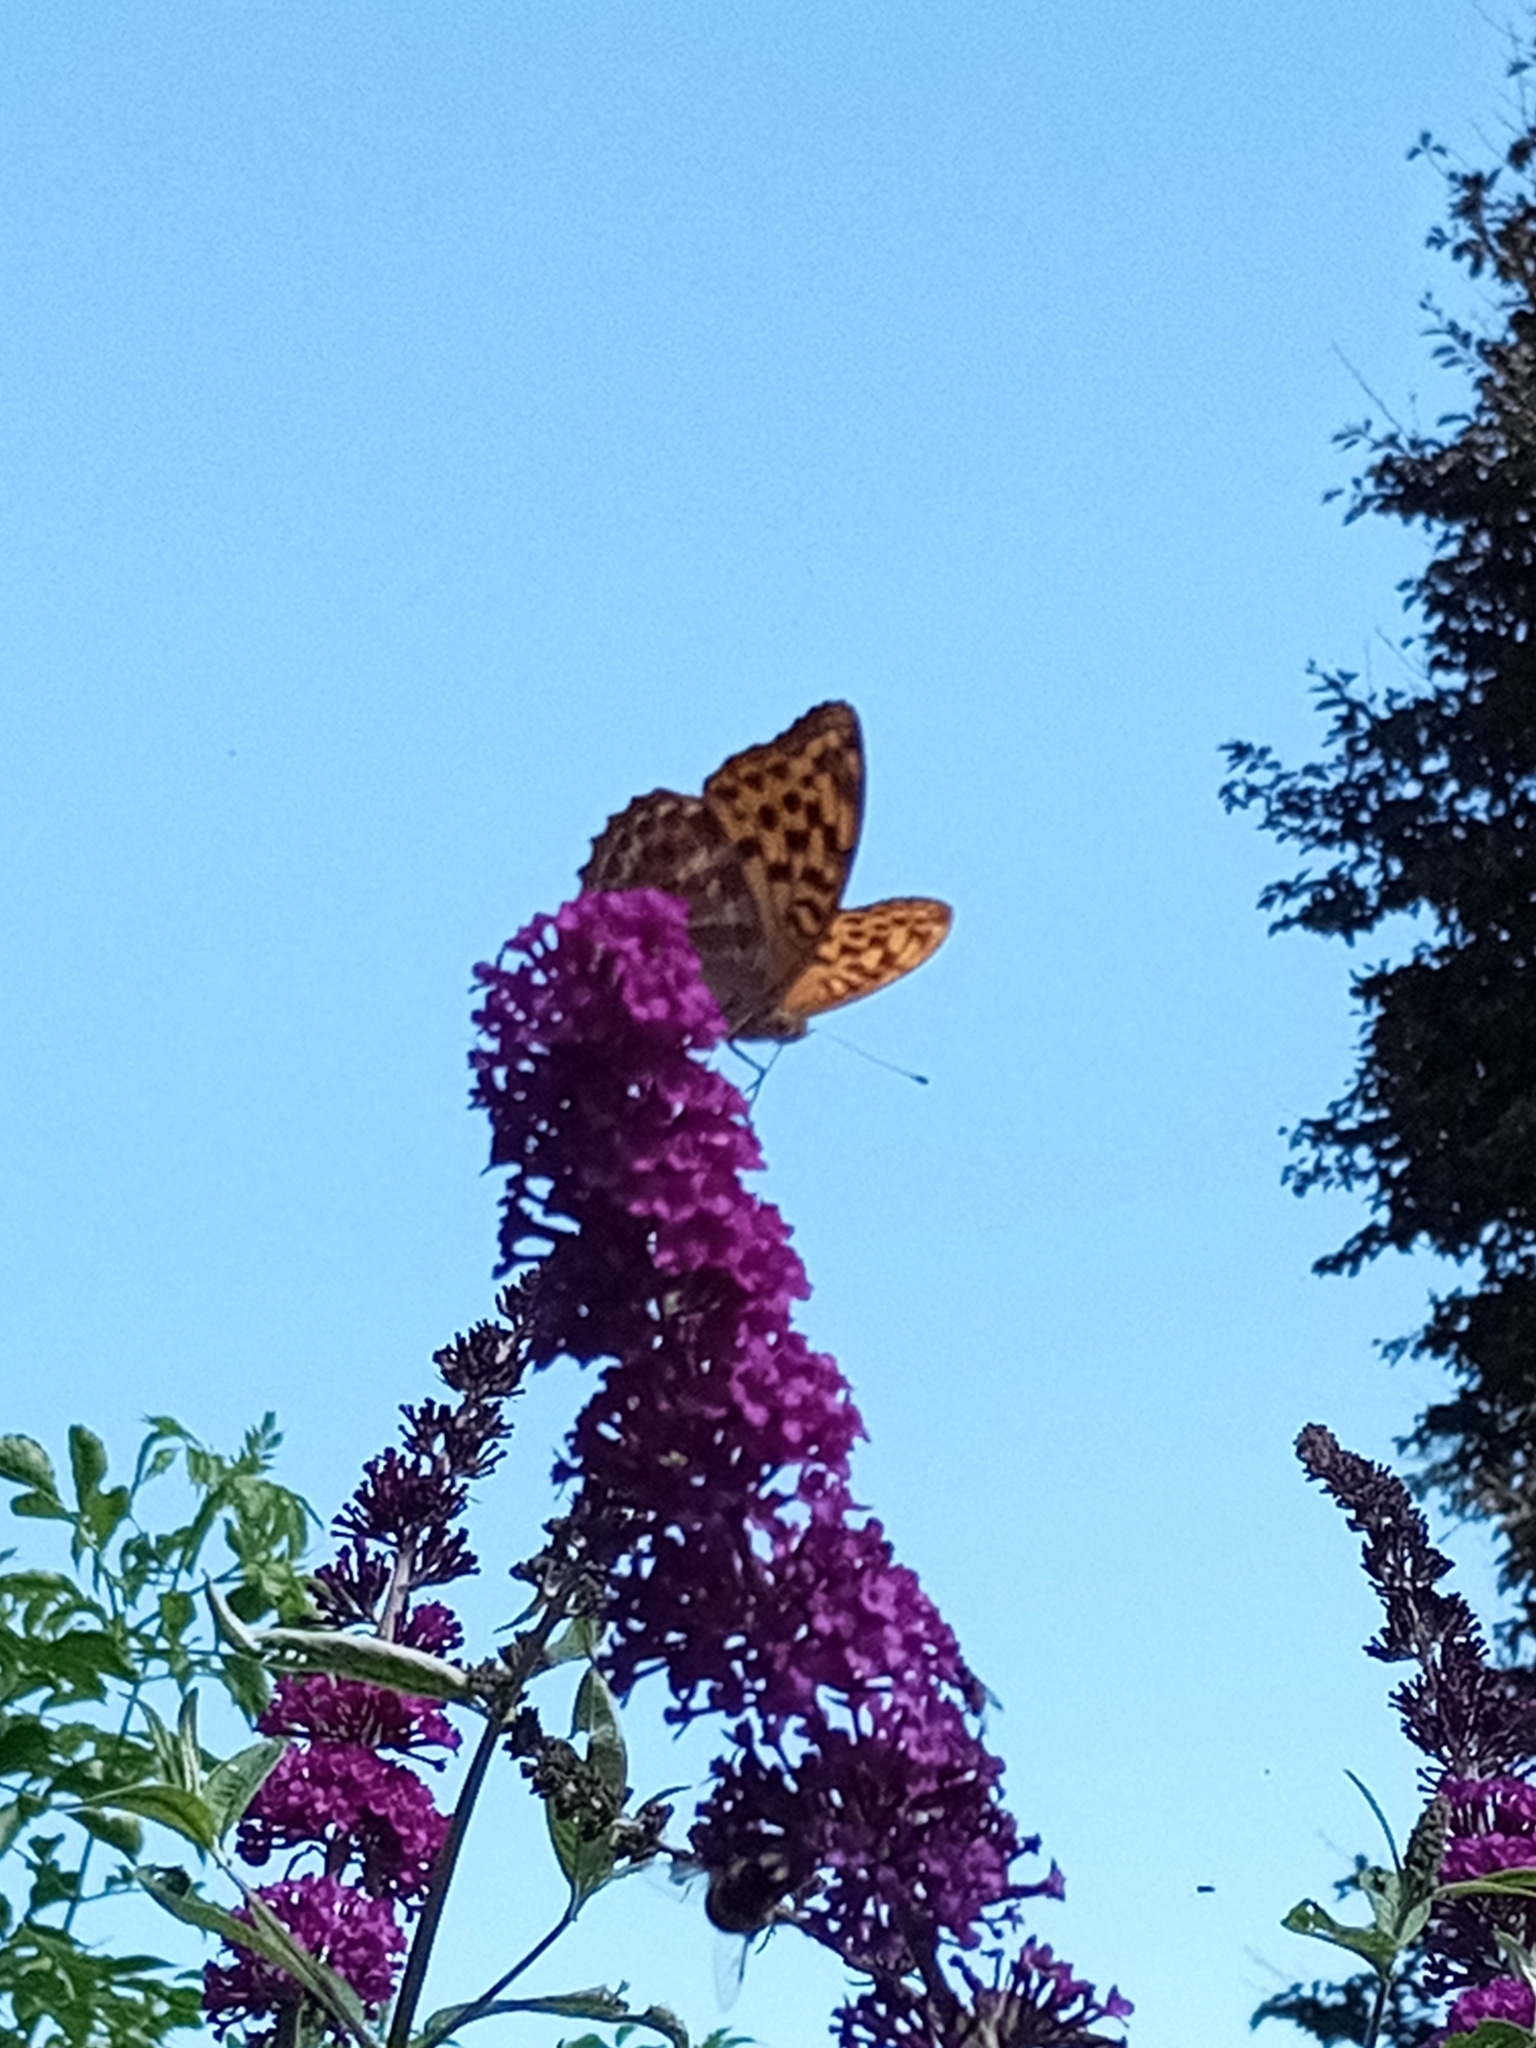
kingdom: Animalia
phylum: Arthropoda
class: Insecta
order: Lepidoptera
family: Nymphalidae
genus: Argynnis
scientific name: Argynnis paphia
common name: Silver-washed fritillary
